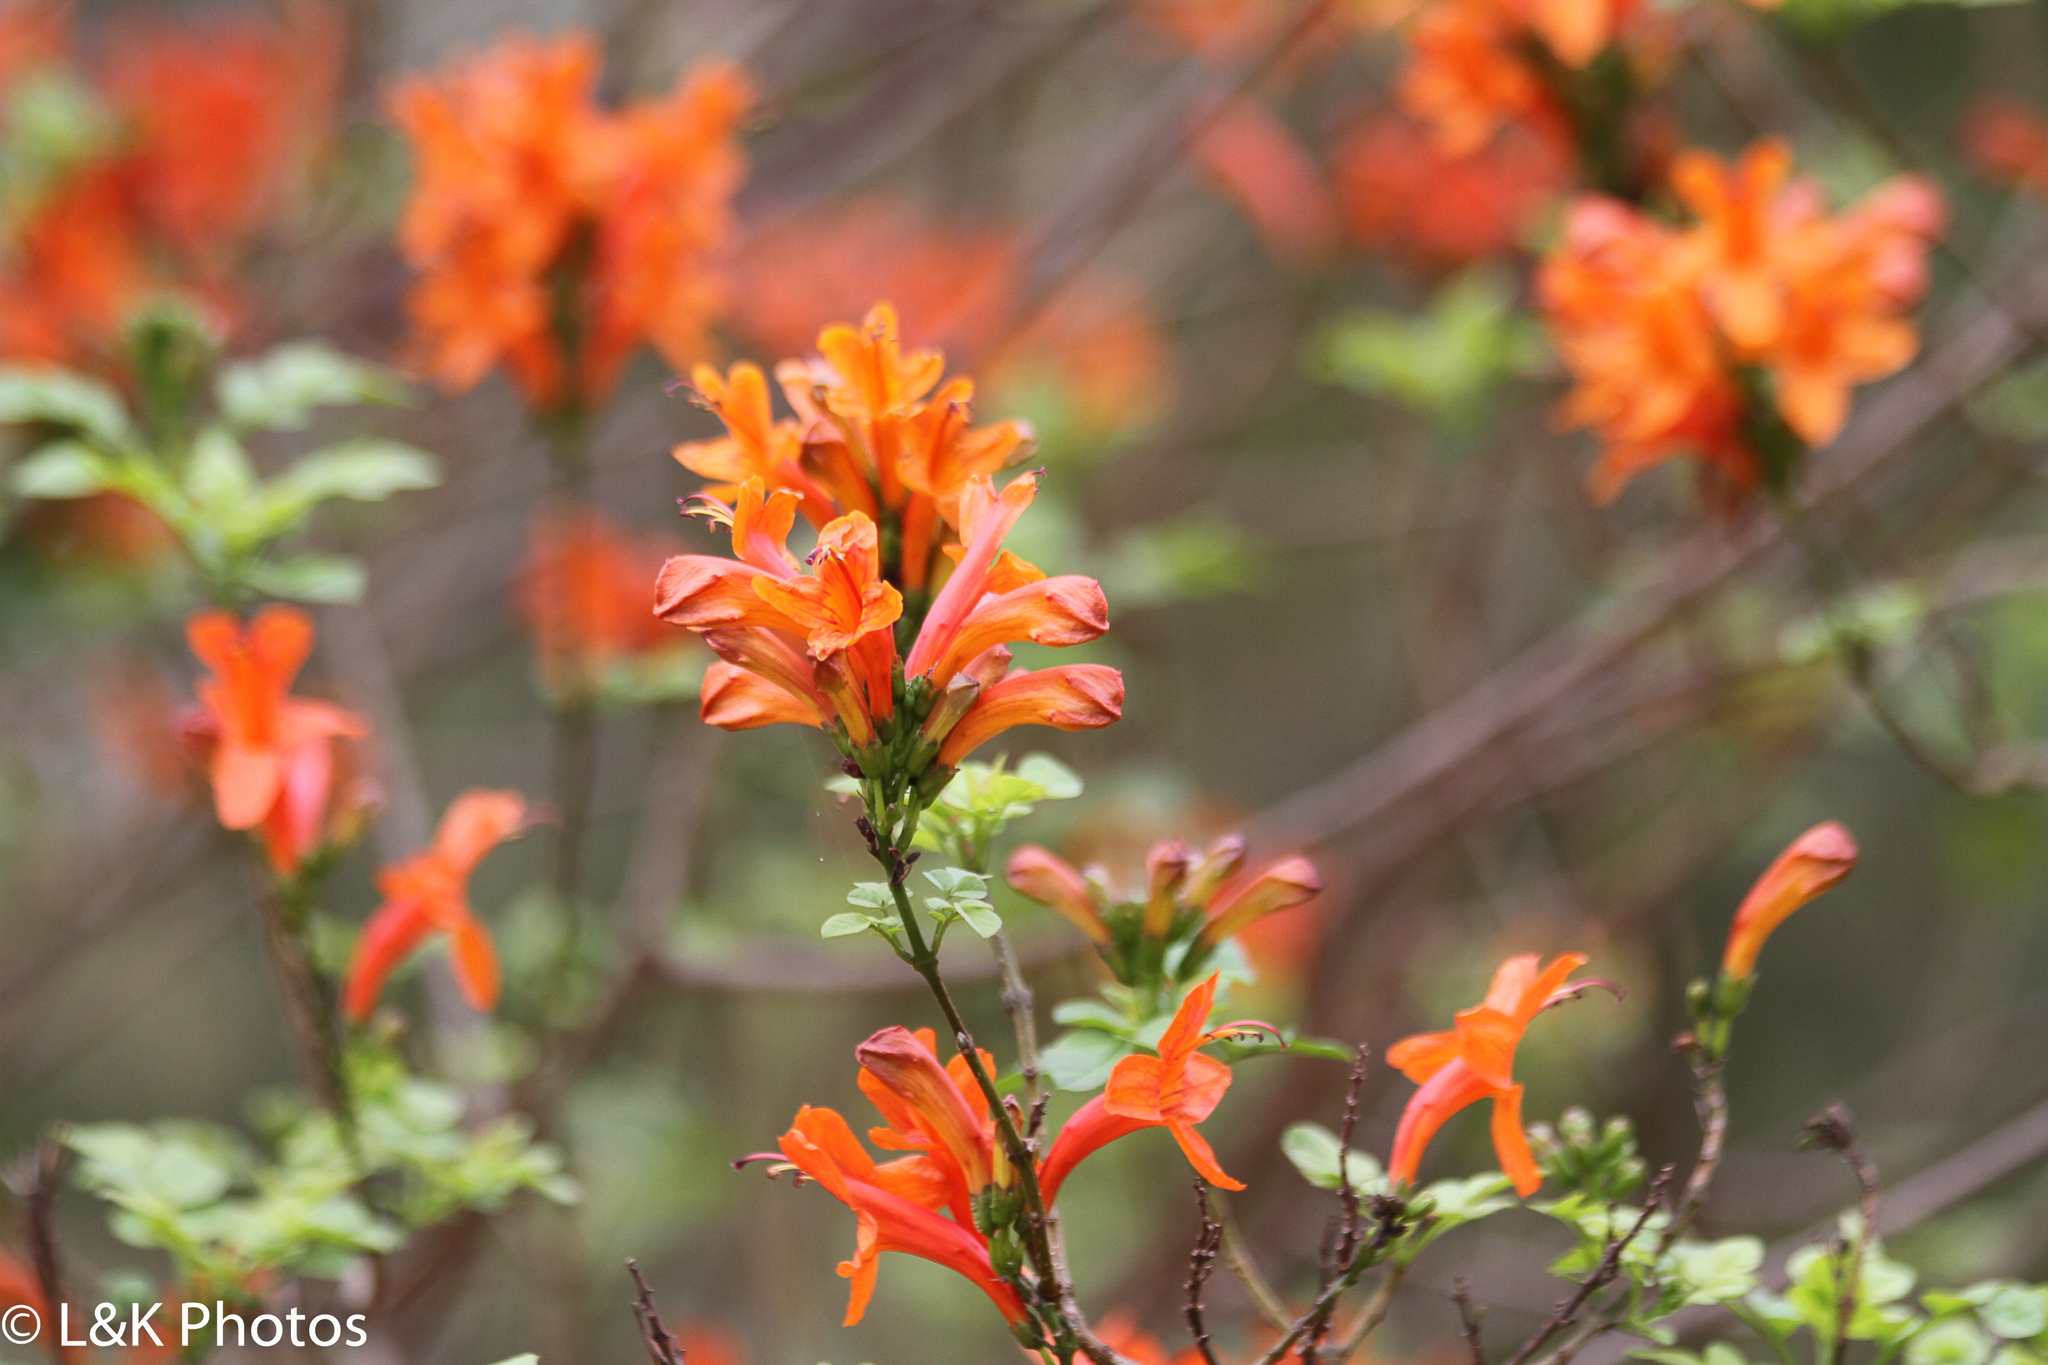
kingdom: Plantae
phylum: Tracheophyta
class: Magnoliopsida
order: Lamiales
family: Bignoniaceae
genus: Tecomaria
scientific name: Tecomaria capensis
